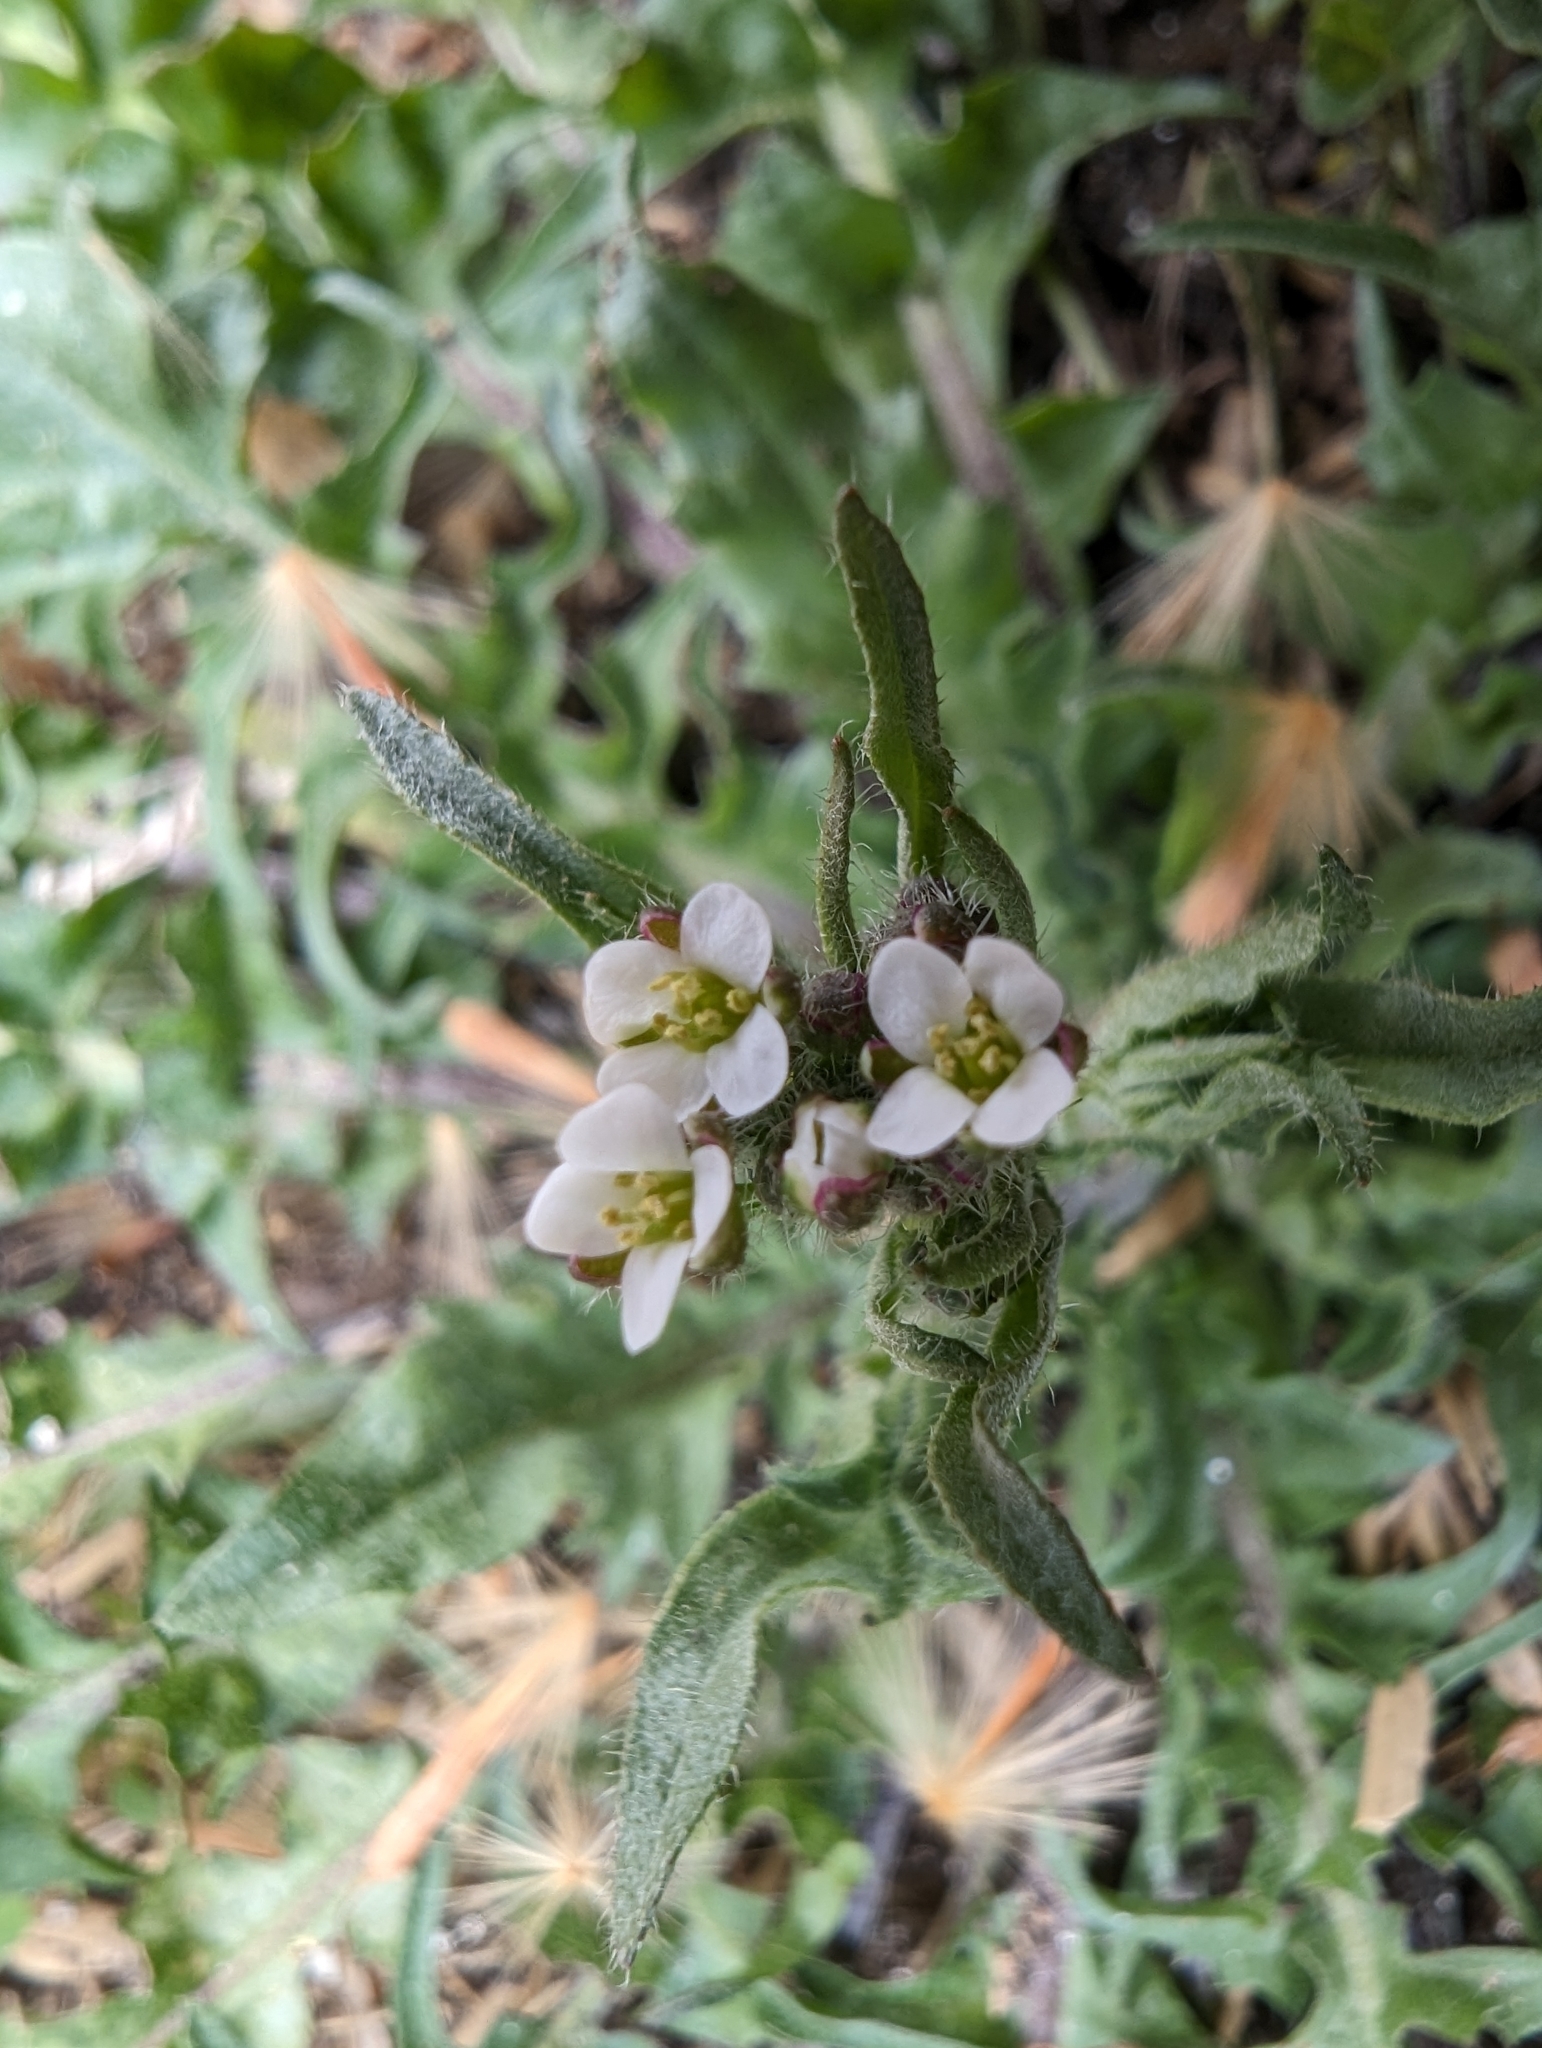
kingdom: Plantae
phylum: Tracheophyta
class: Magnoliopsida
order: Brassicales
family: Brassicaceae
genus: Capsella
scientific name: Capsella bursa-pastoris
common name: Shepherd's purse
